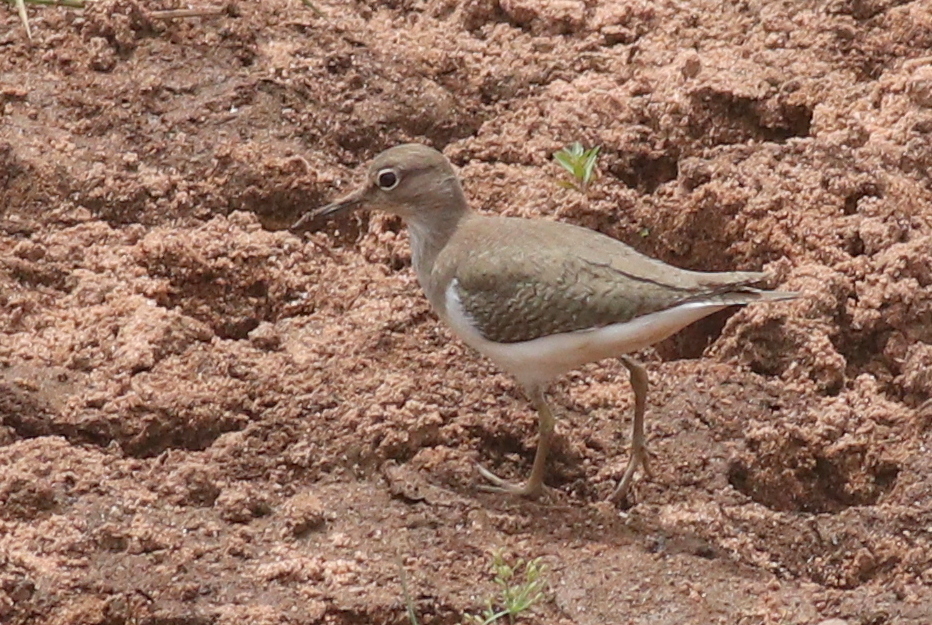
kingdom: Animalia
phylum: Chordata
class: Aves
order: Charadriiformes
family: Scolopacidae
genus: Actitis
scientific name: Actitis hypoleucos
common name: Common sandpiper
